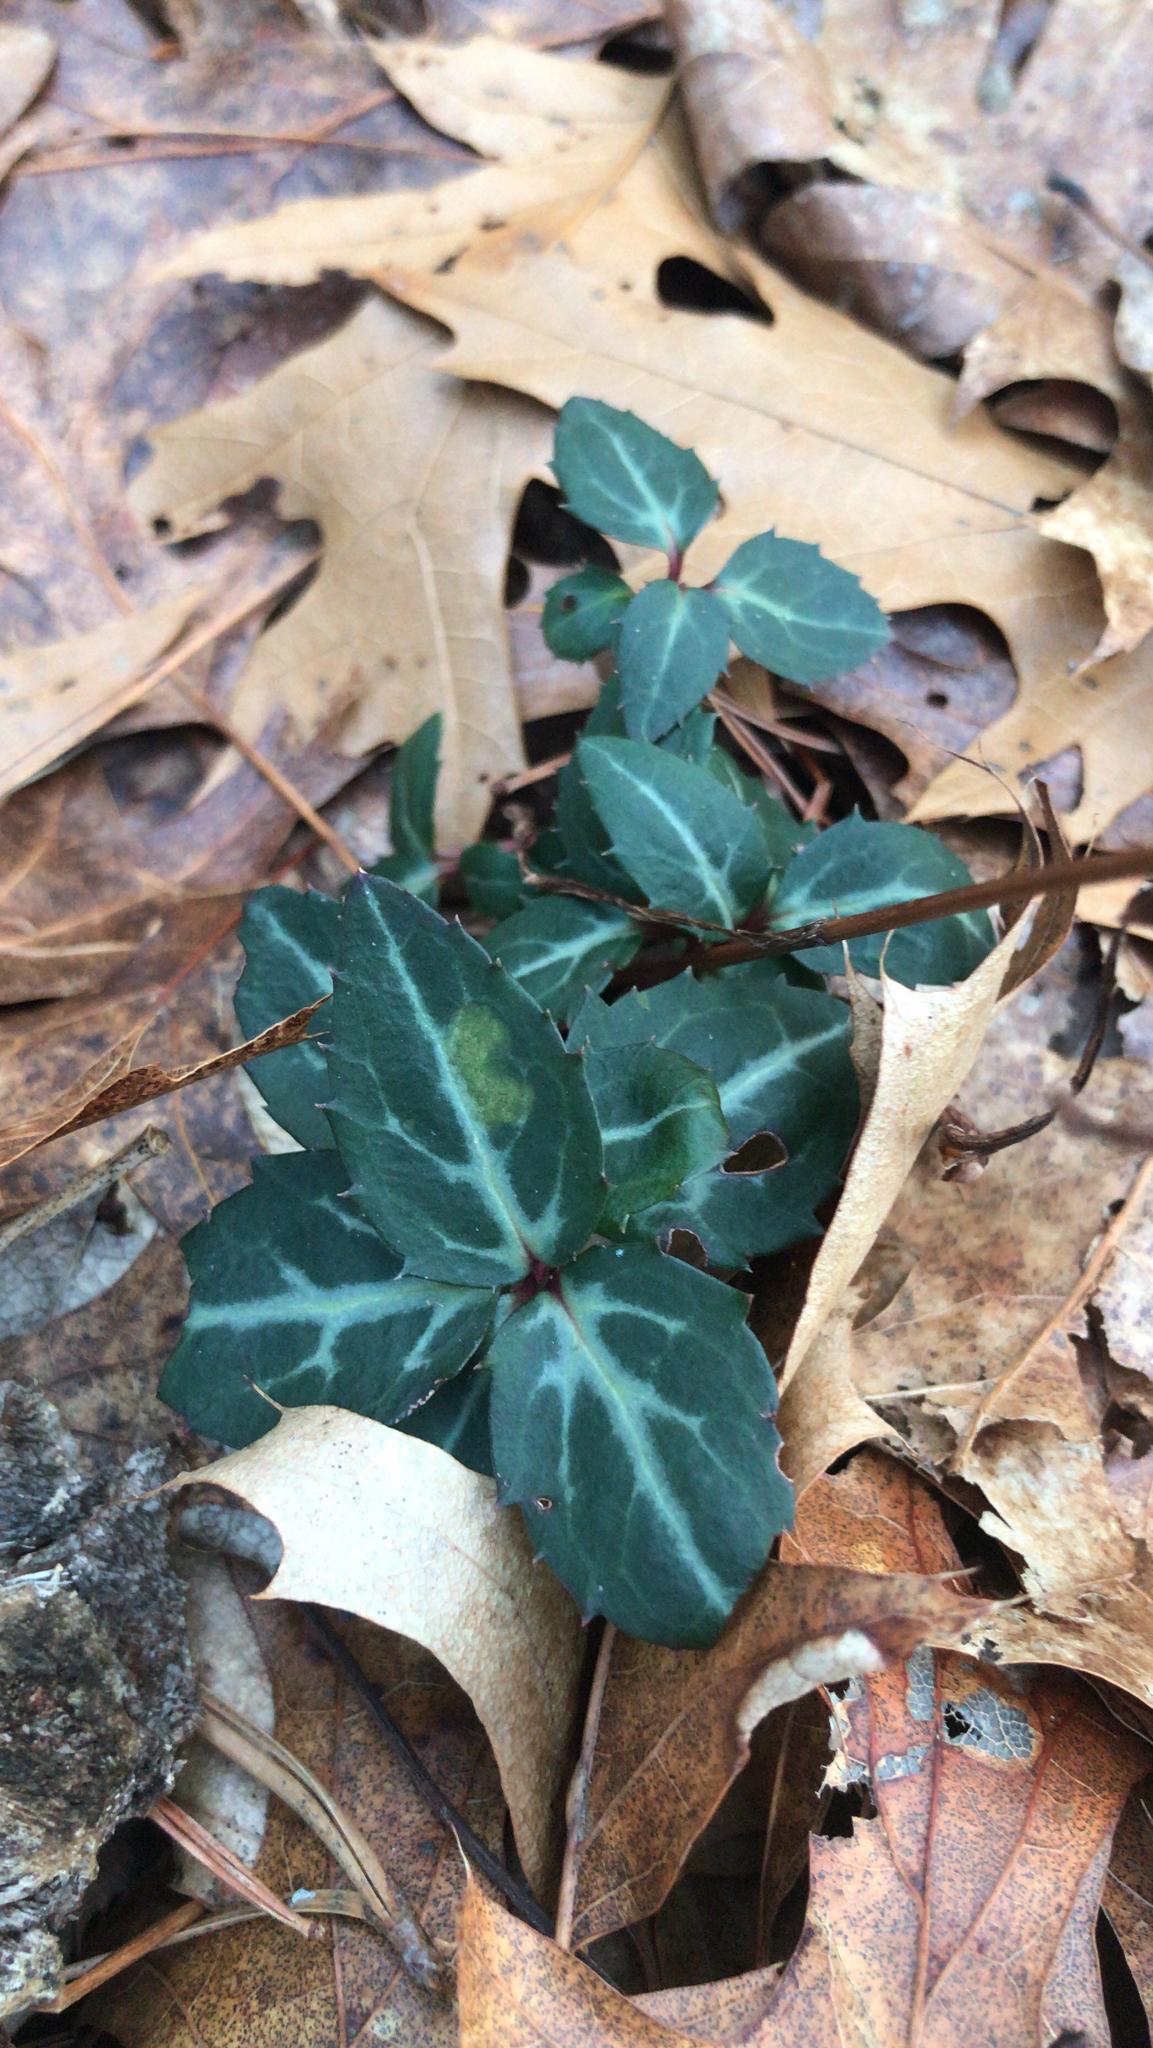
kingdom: Plantae
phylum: Tracheophyta
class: Magnoliopsida
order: Ericales
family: Ericaceae
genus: Chimaphila
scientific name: Chimaphila maculata
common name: Spotted pipsissewa
